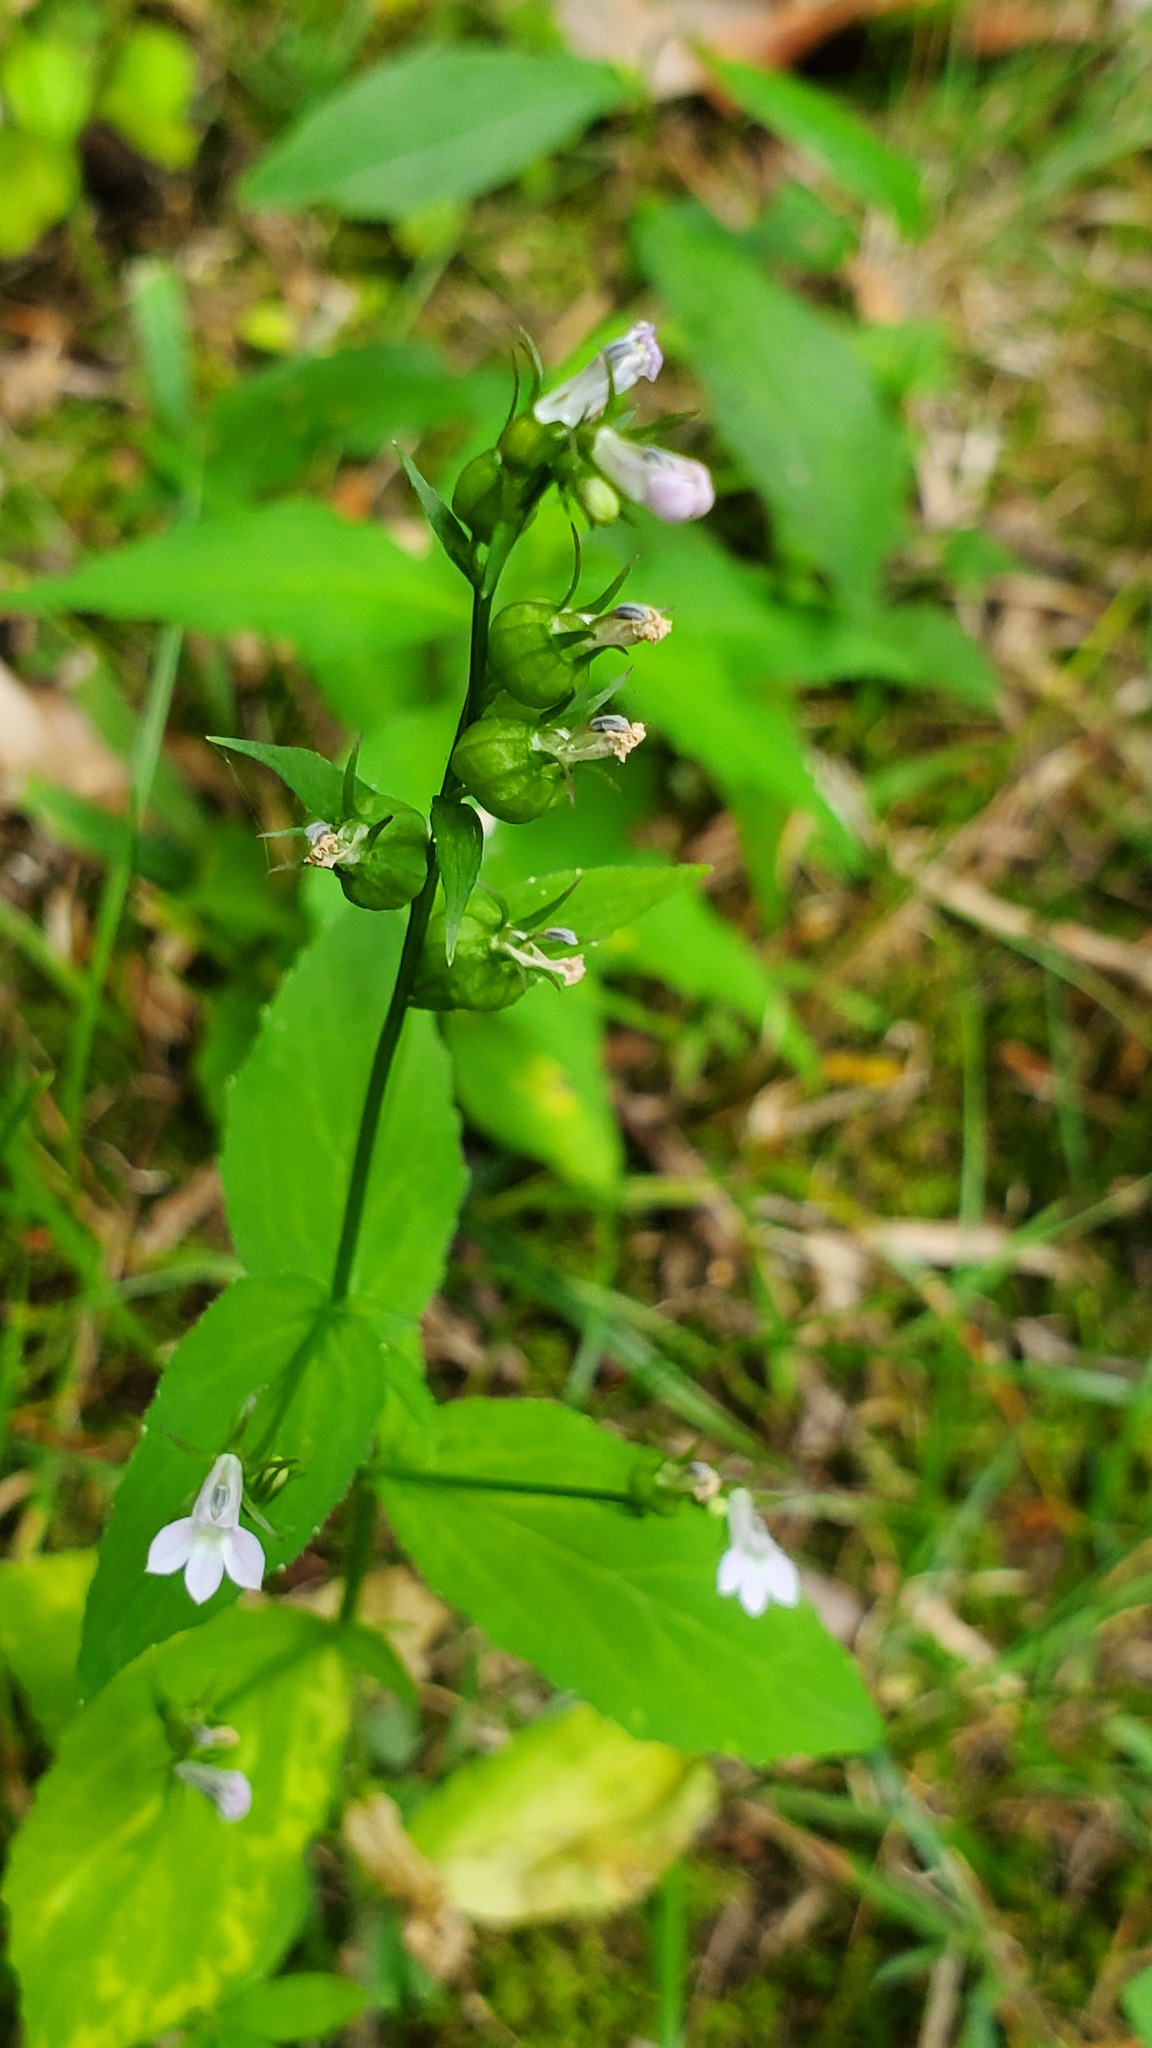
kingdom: Plantae
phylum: Tracheophyta
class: Magnoliopsida
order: Asterales
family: Campanulaceae
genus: Lobelia
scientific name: Lobelia inflata
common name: Indian tobacco
